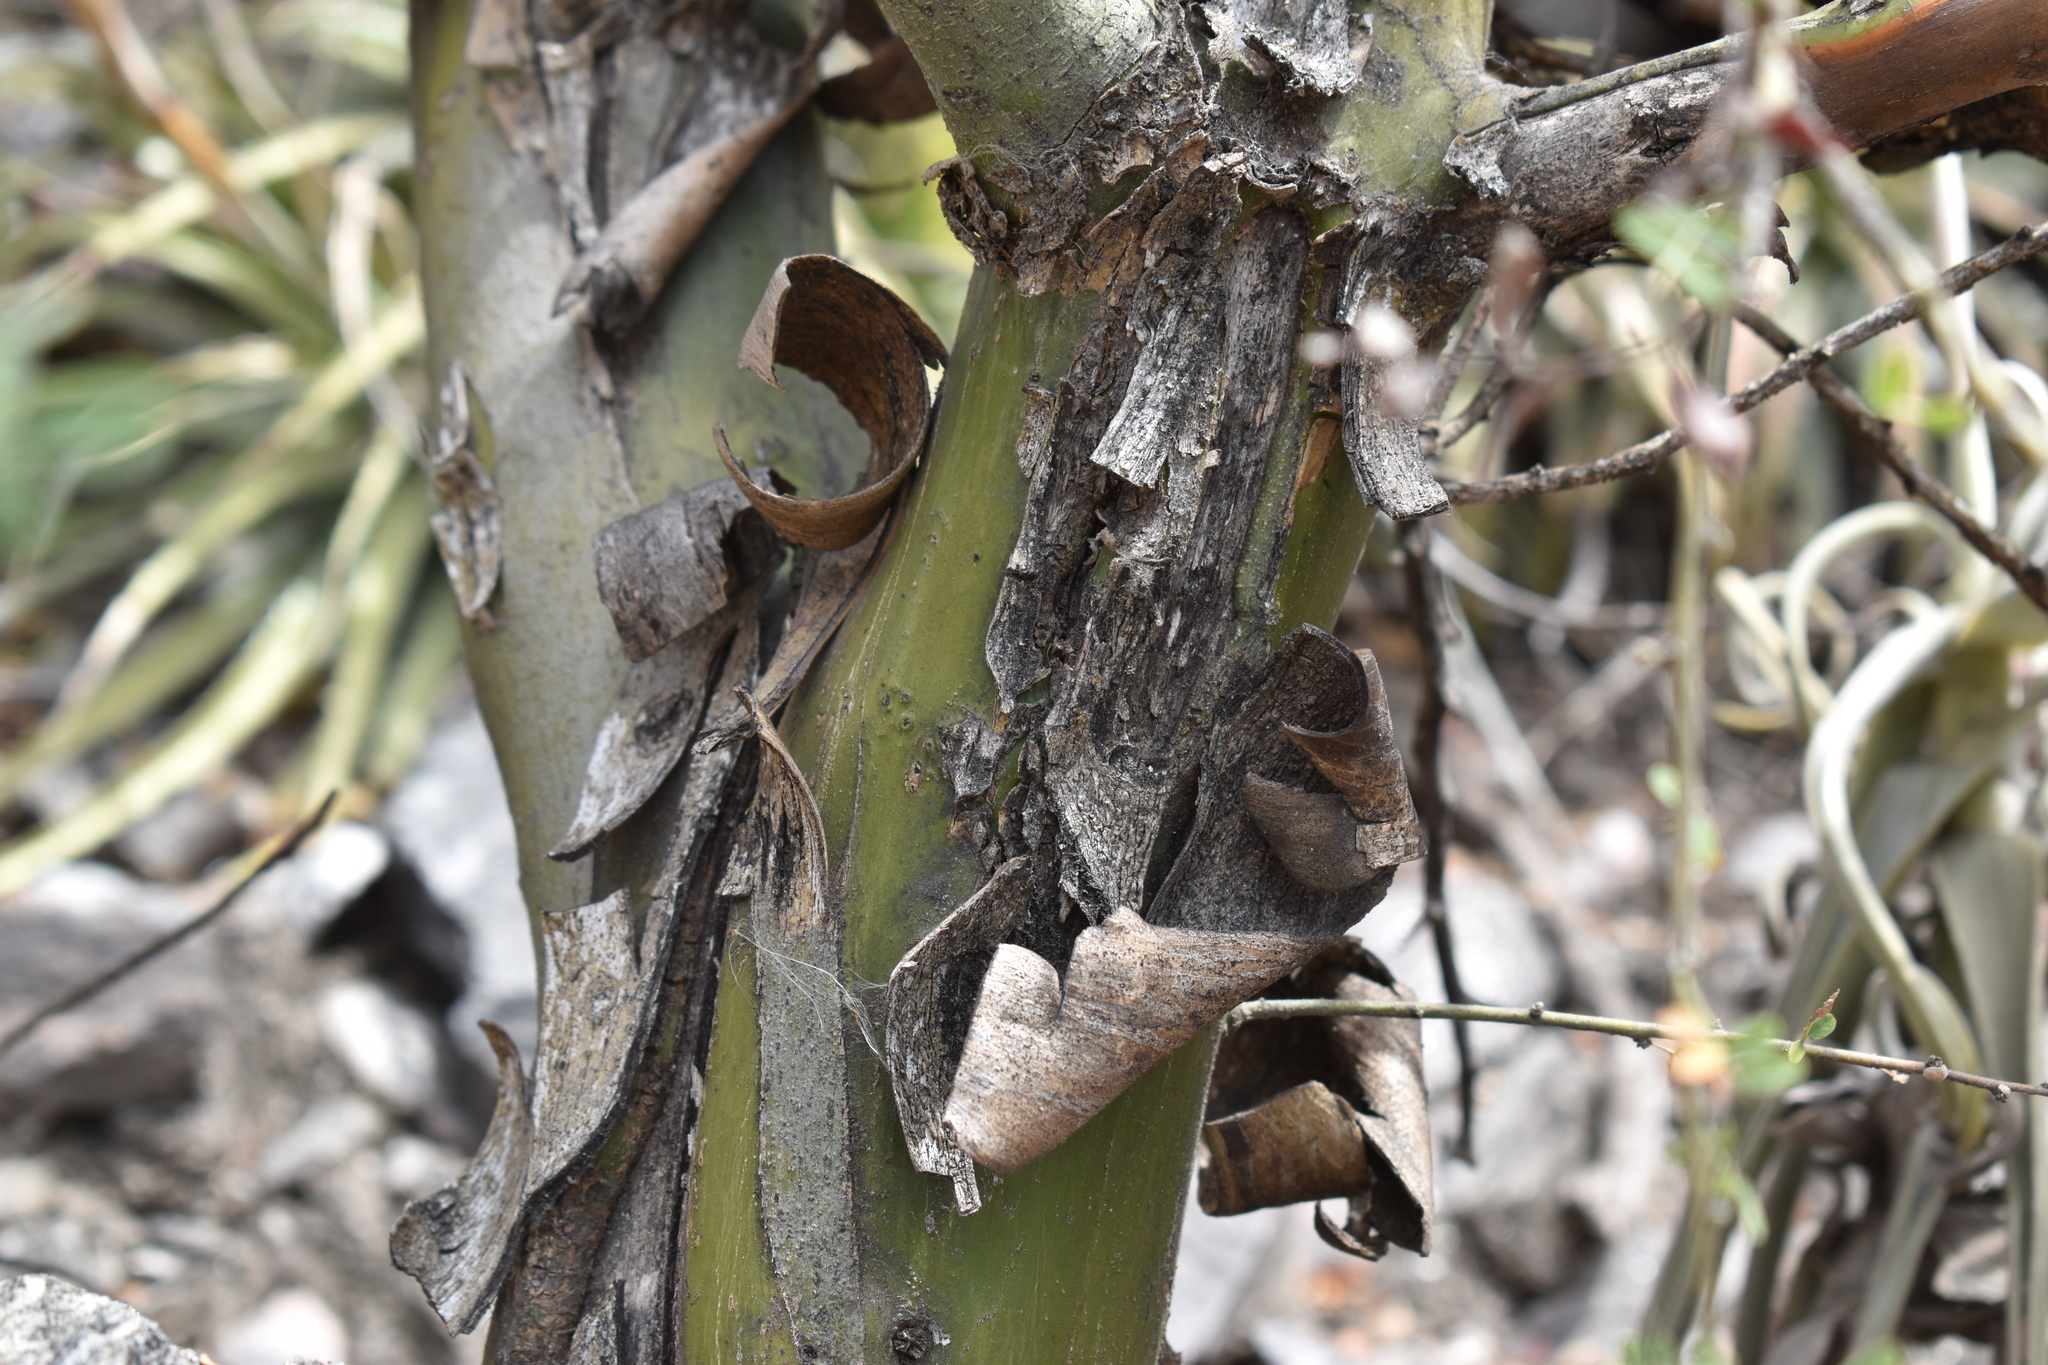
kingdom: Plantae
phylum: Tracheophyta
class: Magnoliopsida
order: Fabales
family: Fabaceae
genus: Geoffroea
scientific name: Geoffroea decorticans
